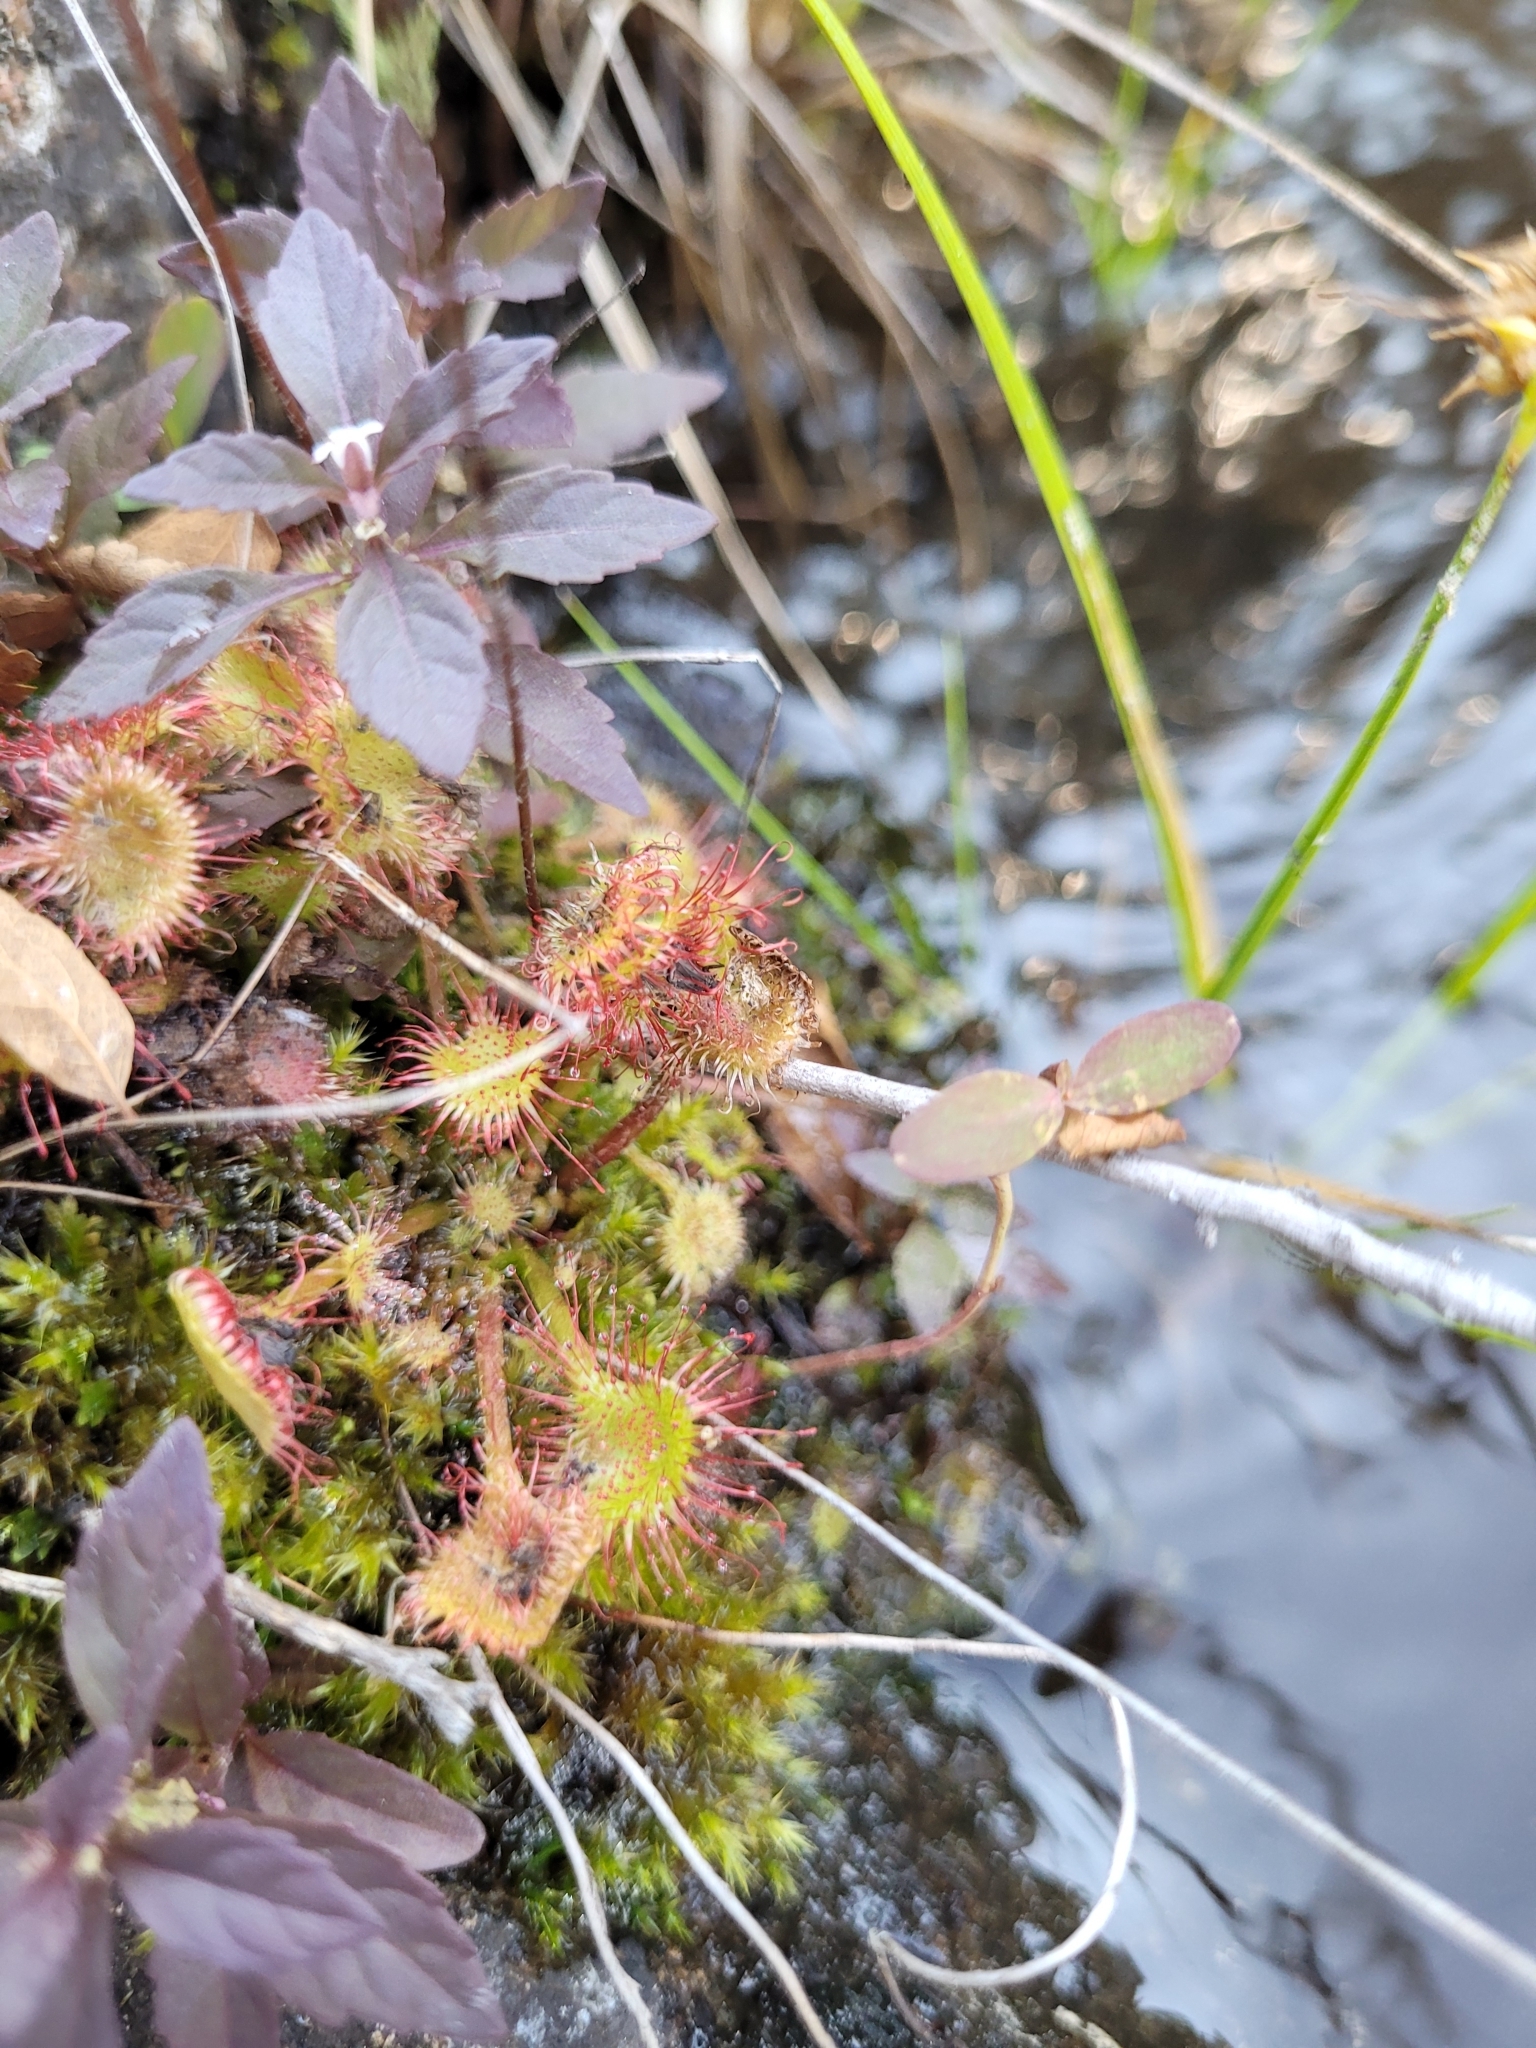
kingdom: Plantae
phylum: Tracheophyta
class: Magnoliopsida
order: Caryophyllales
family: Droseraceae
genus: Drosera
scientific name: Drosera rotundifolia
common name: Round-leaved sundew
